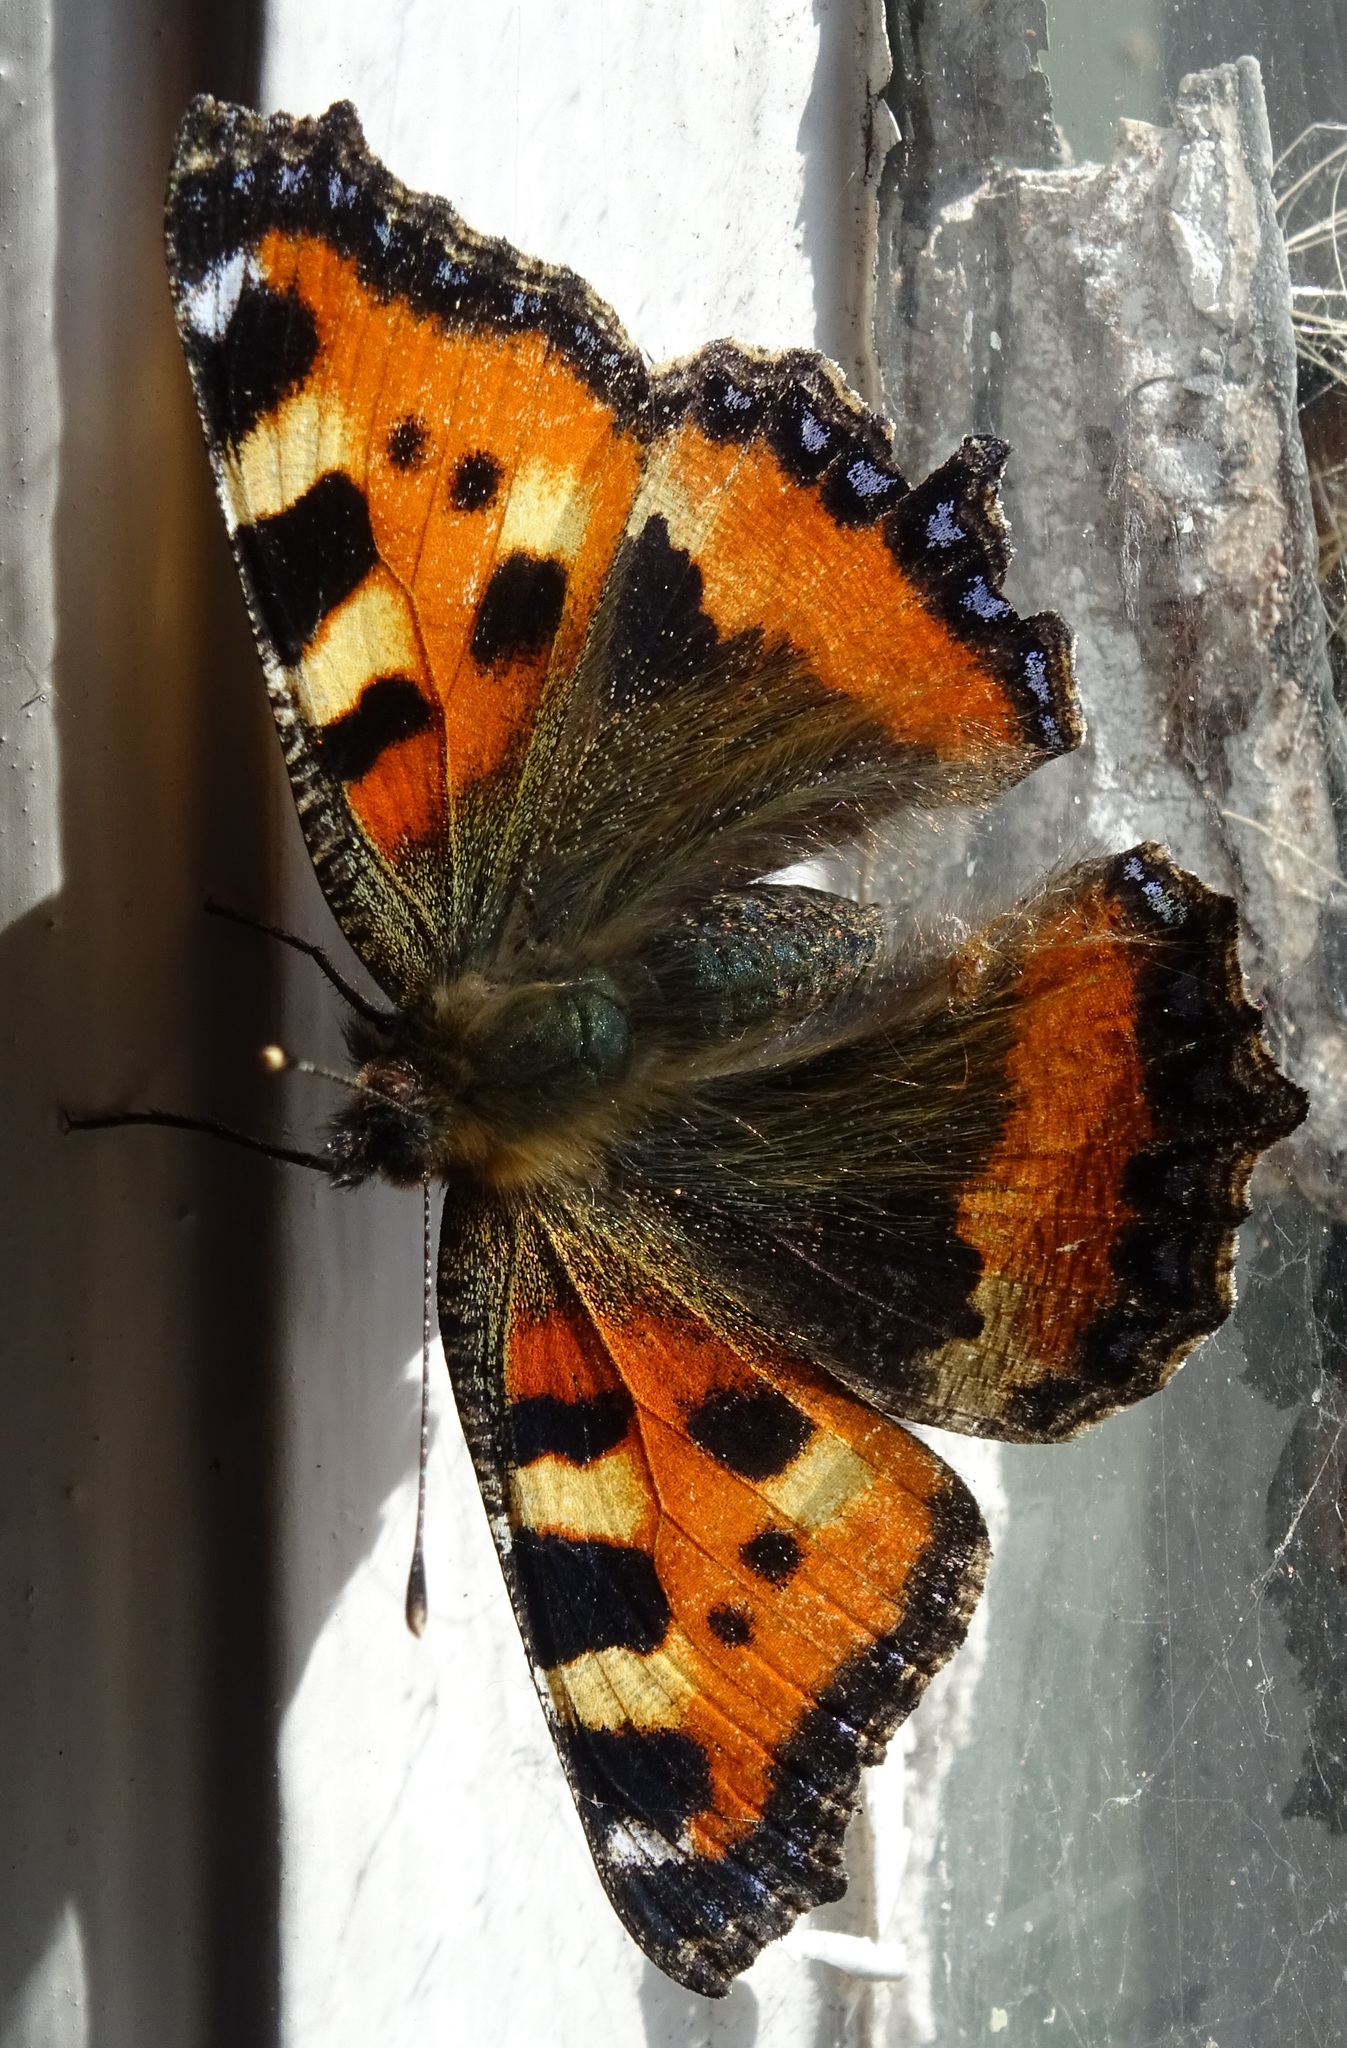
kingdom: Animalia
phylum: Arthropoda
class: Insecta
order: Lepidoptera
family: Nymphalidae
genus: Aglais
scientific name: Aglais urticae
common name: Small tortoiseshell
